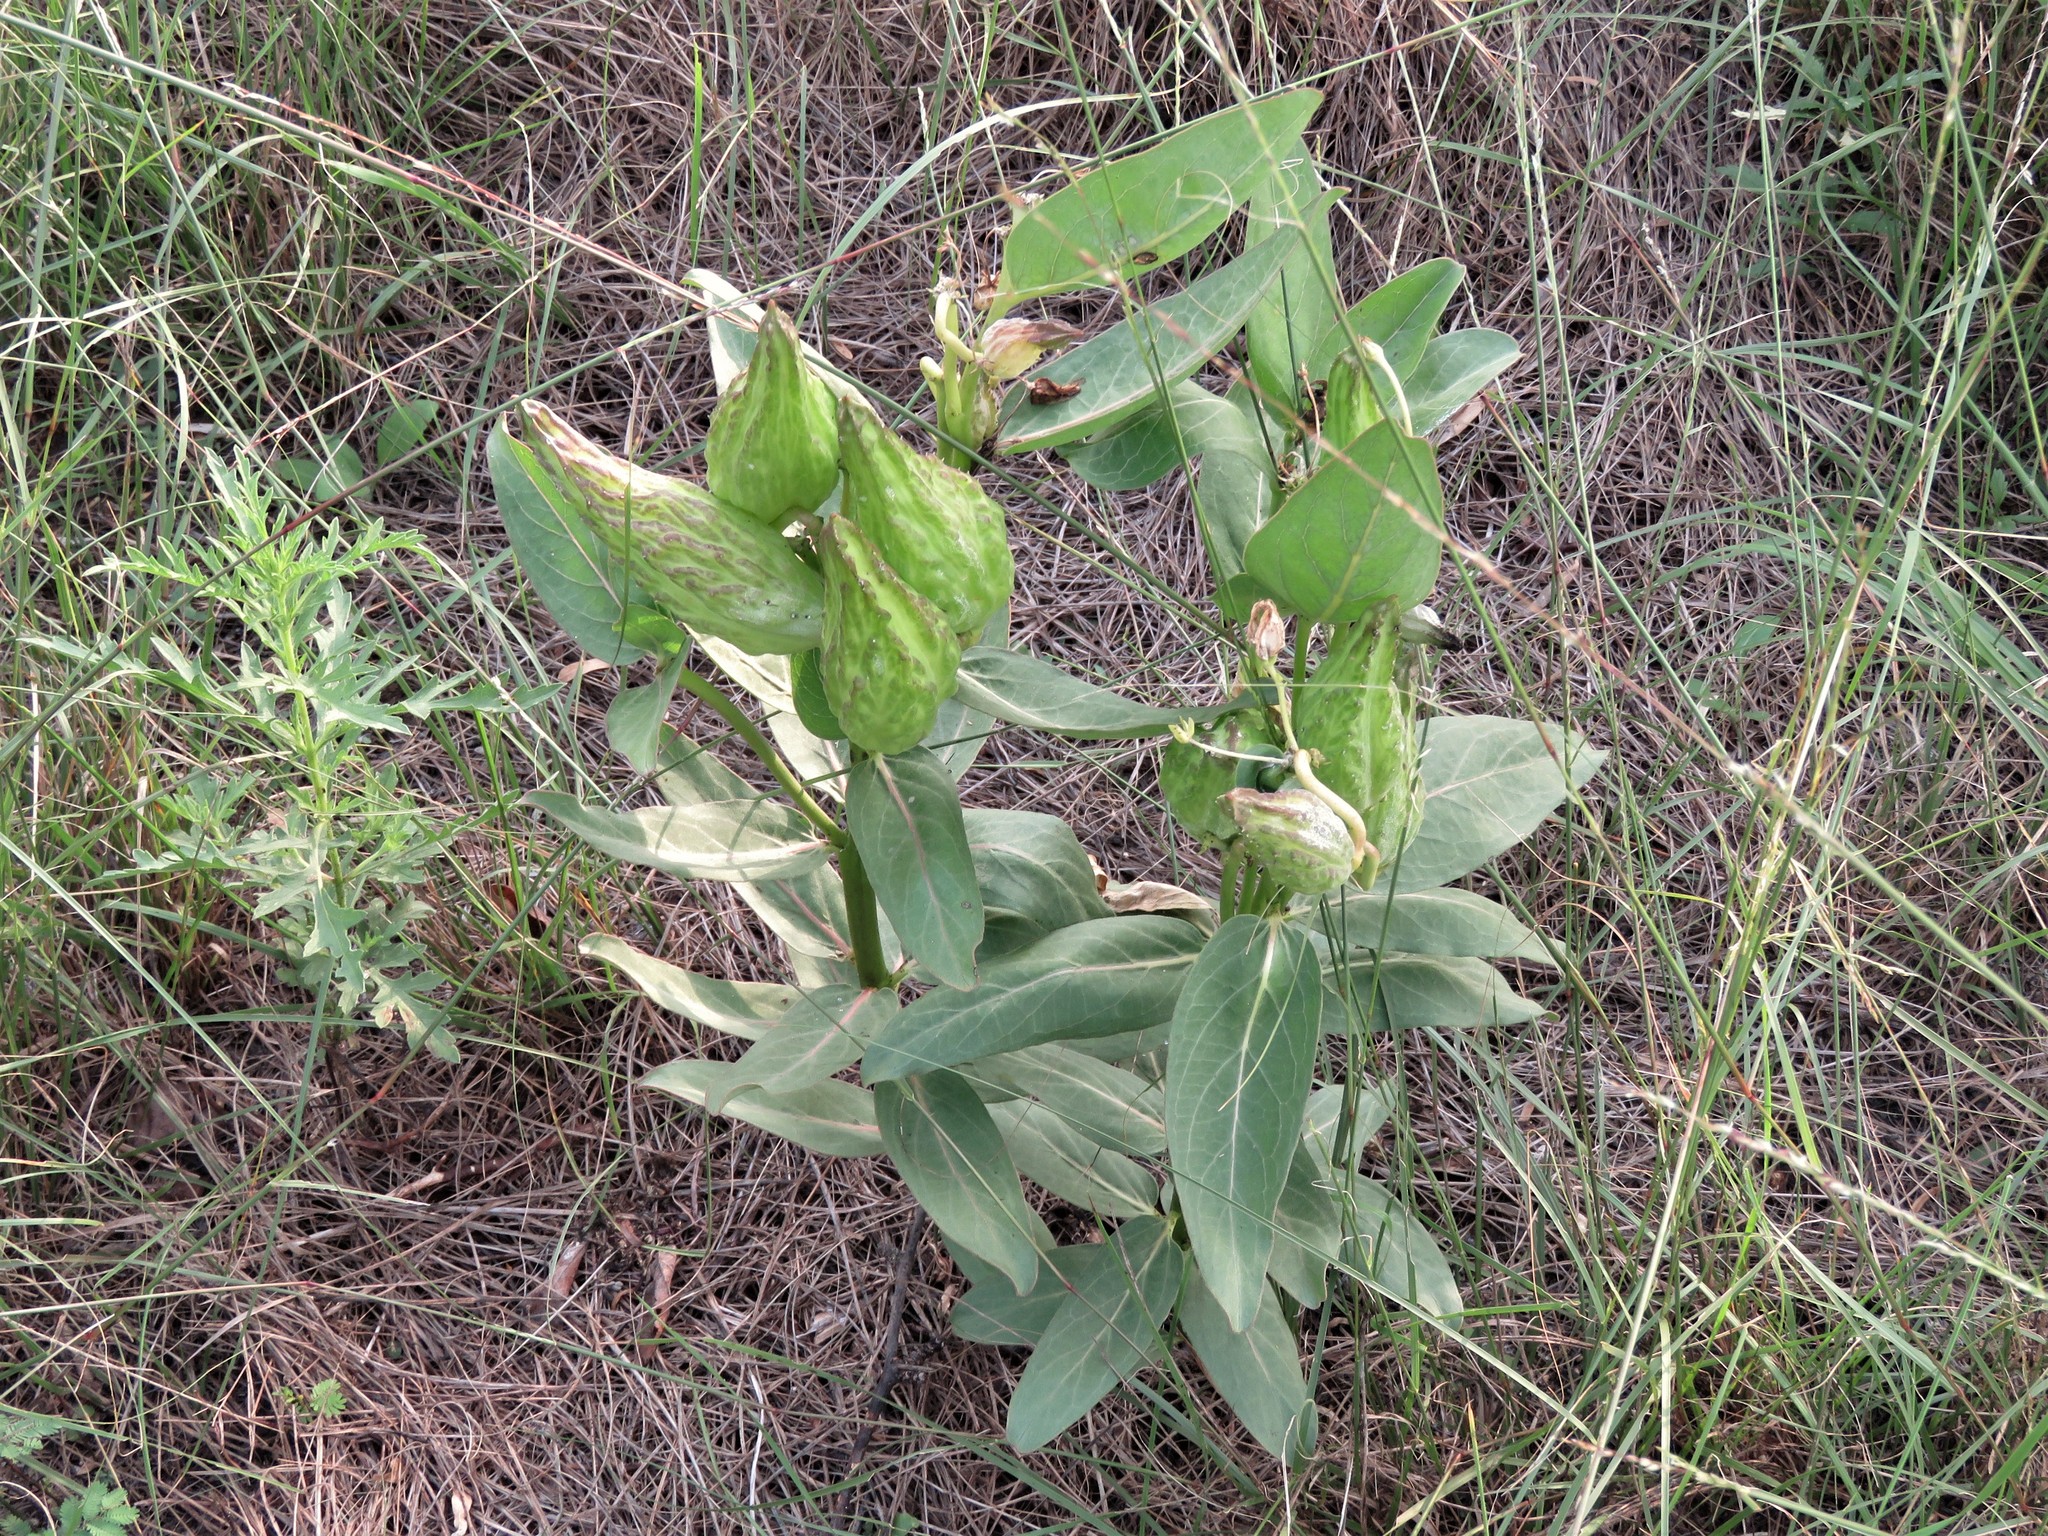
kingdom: Plantae
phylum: Tracheophyta
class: Magnoliopsida
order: Gentianales
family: Apocynaceae
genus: Asclepias
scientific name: Asclepias viridis
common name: Antelope-horns
